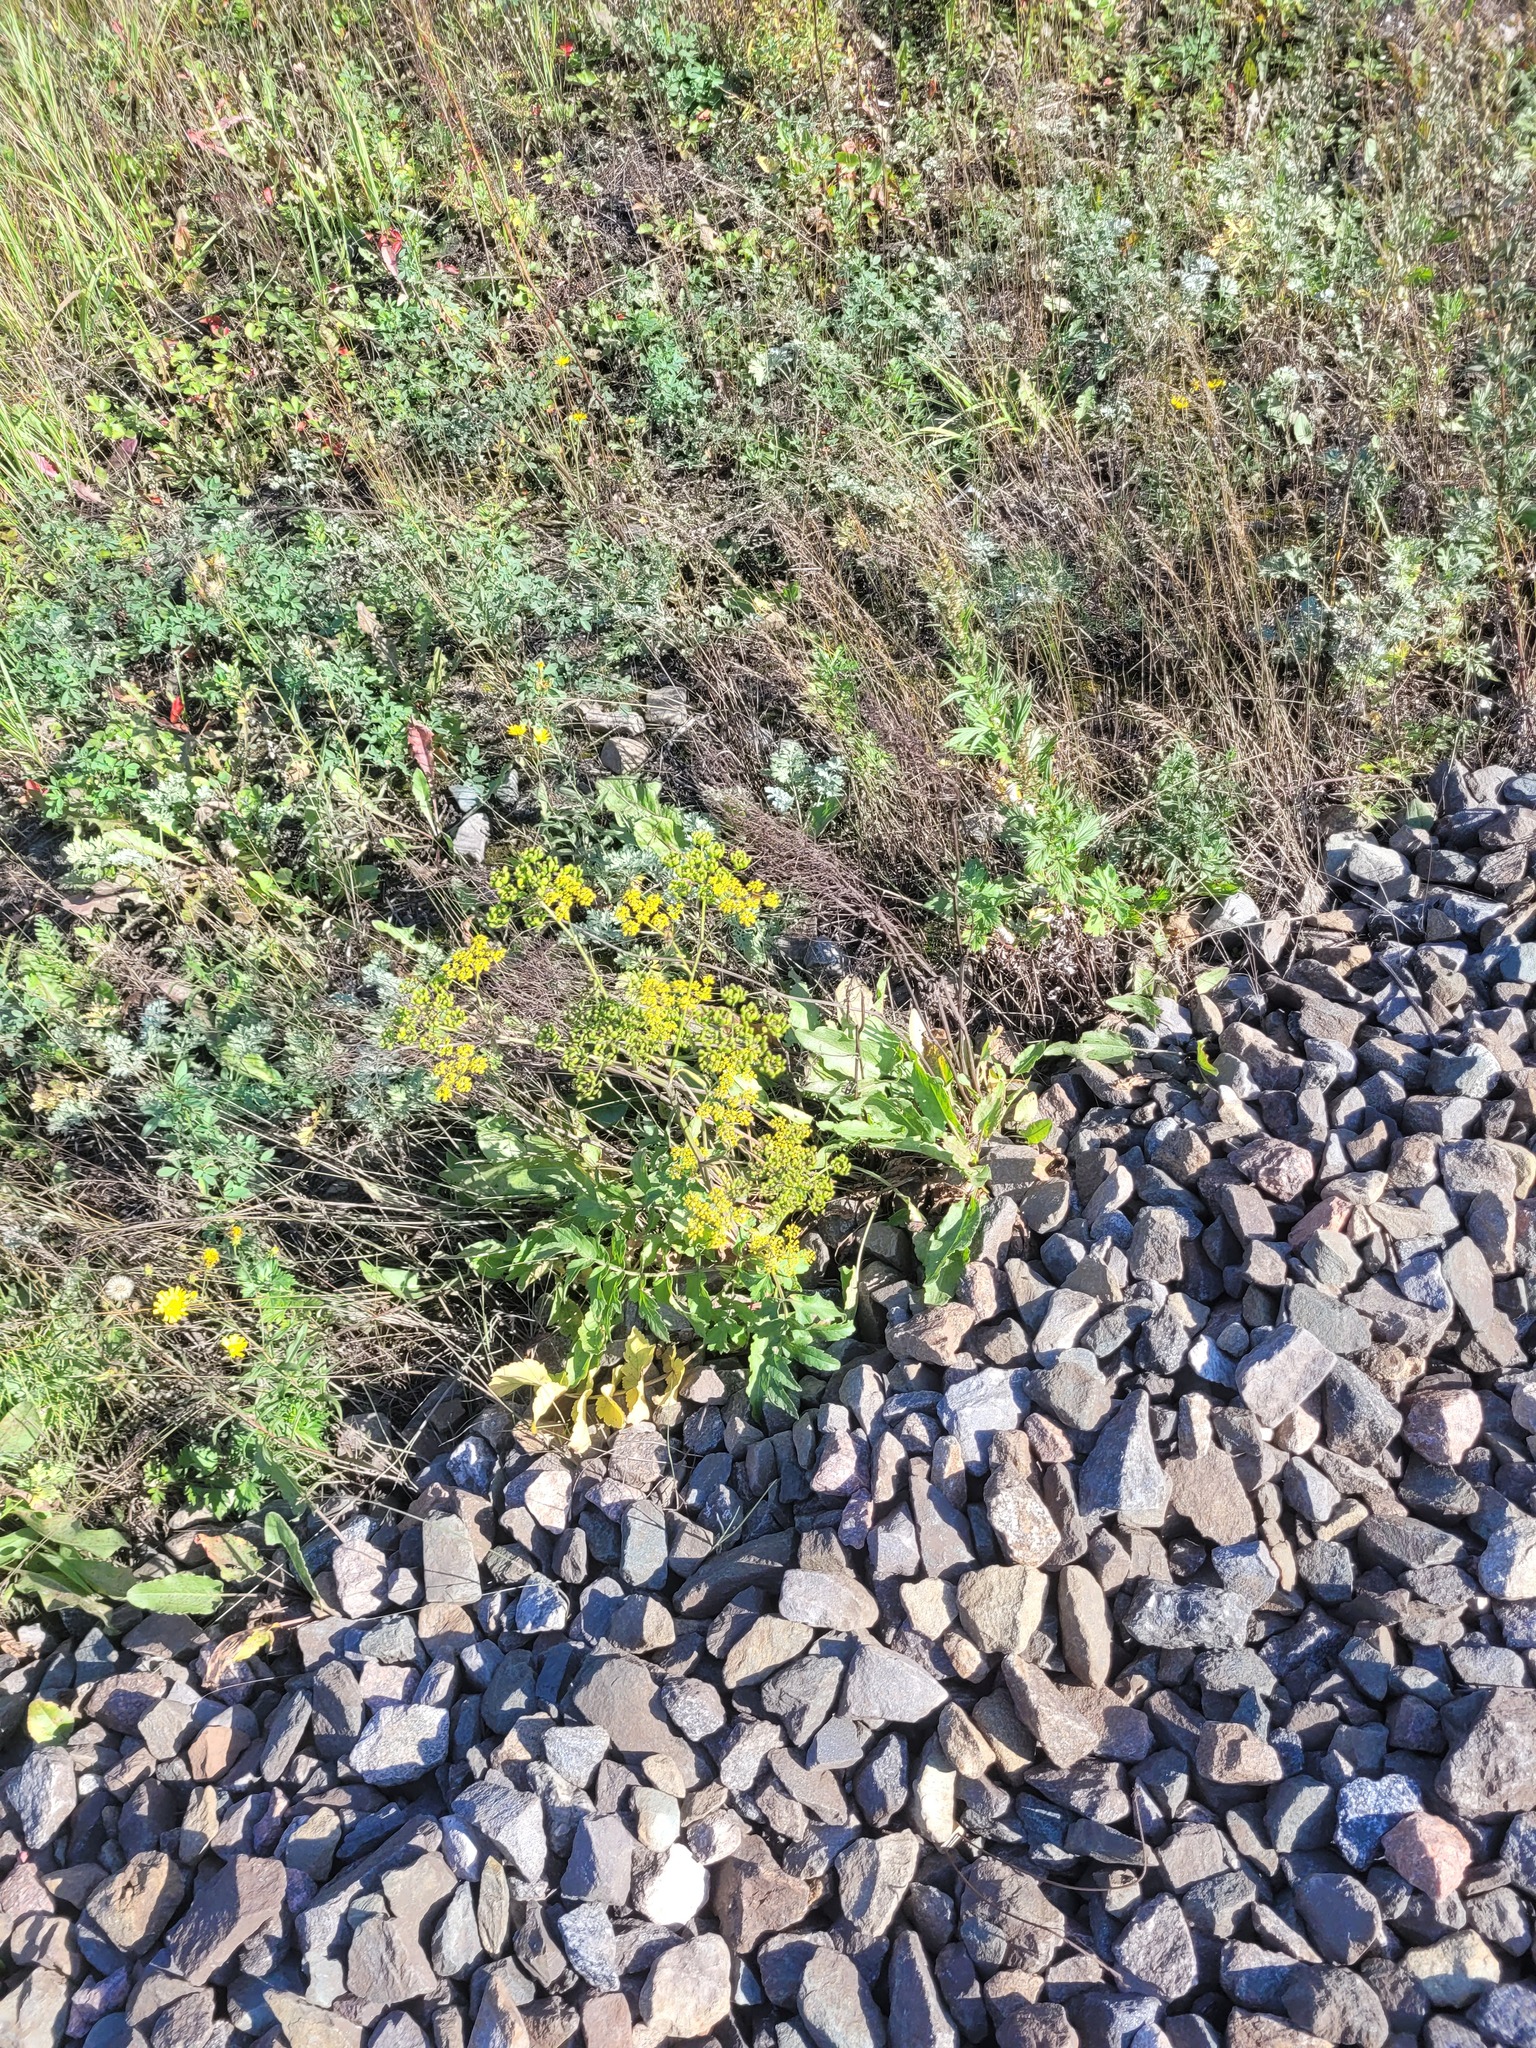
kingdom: Plantae
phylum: Tracheophyta
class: Magnoliopsida
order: Apiales
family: Apiaceae
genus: Pastinaca
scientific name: Pastinaca sativa
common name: Wild parsnip
